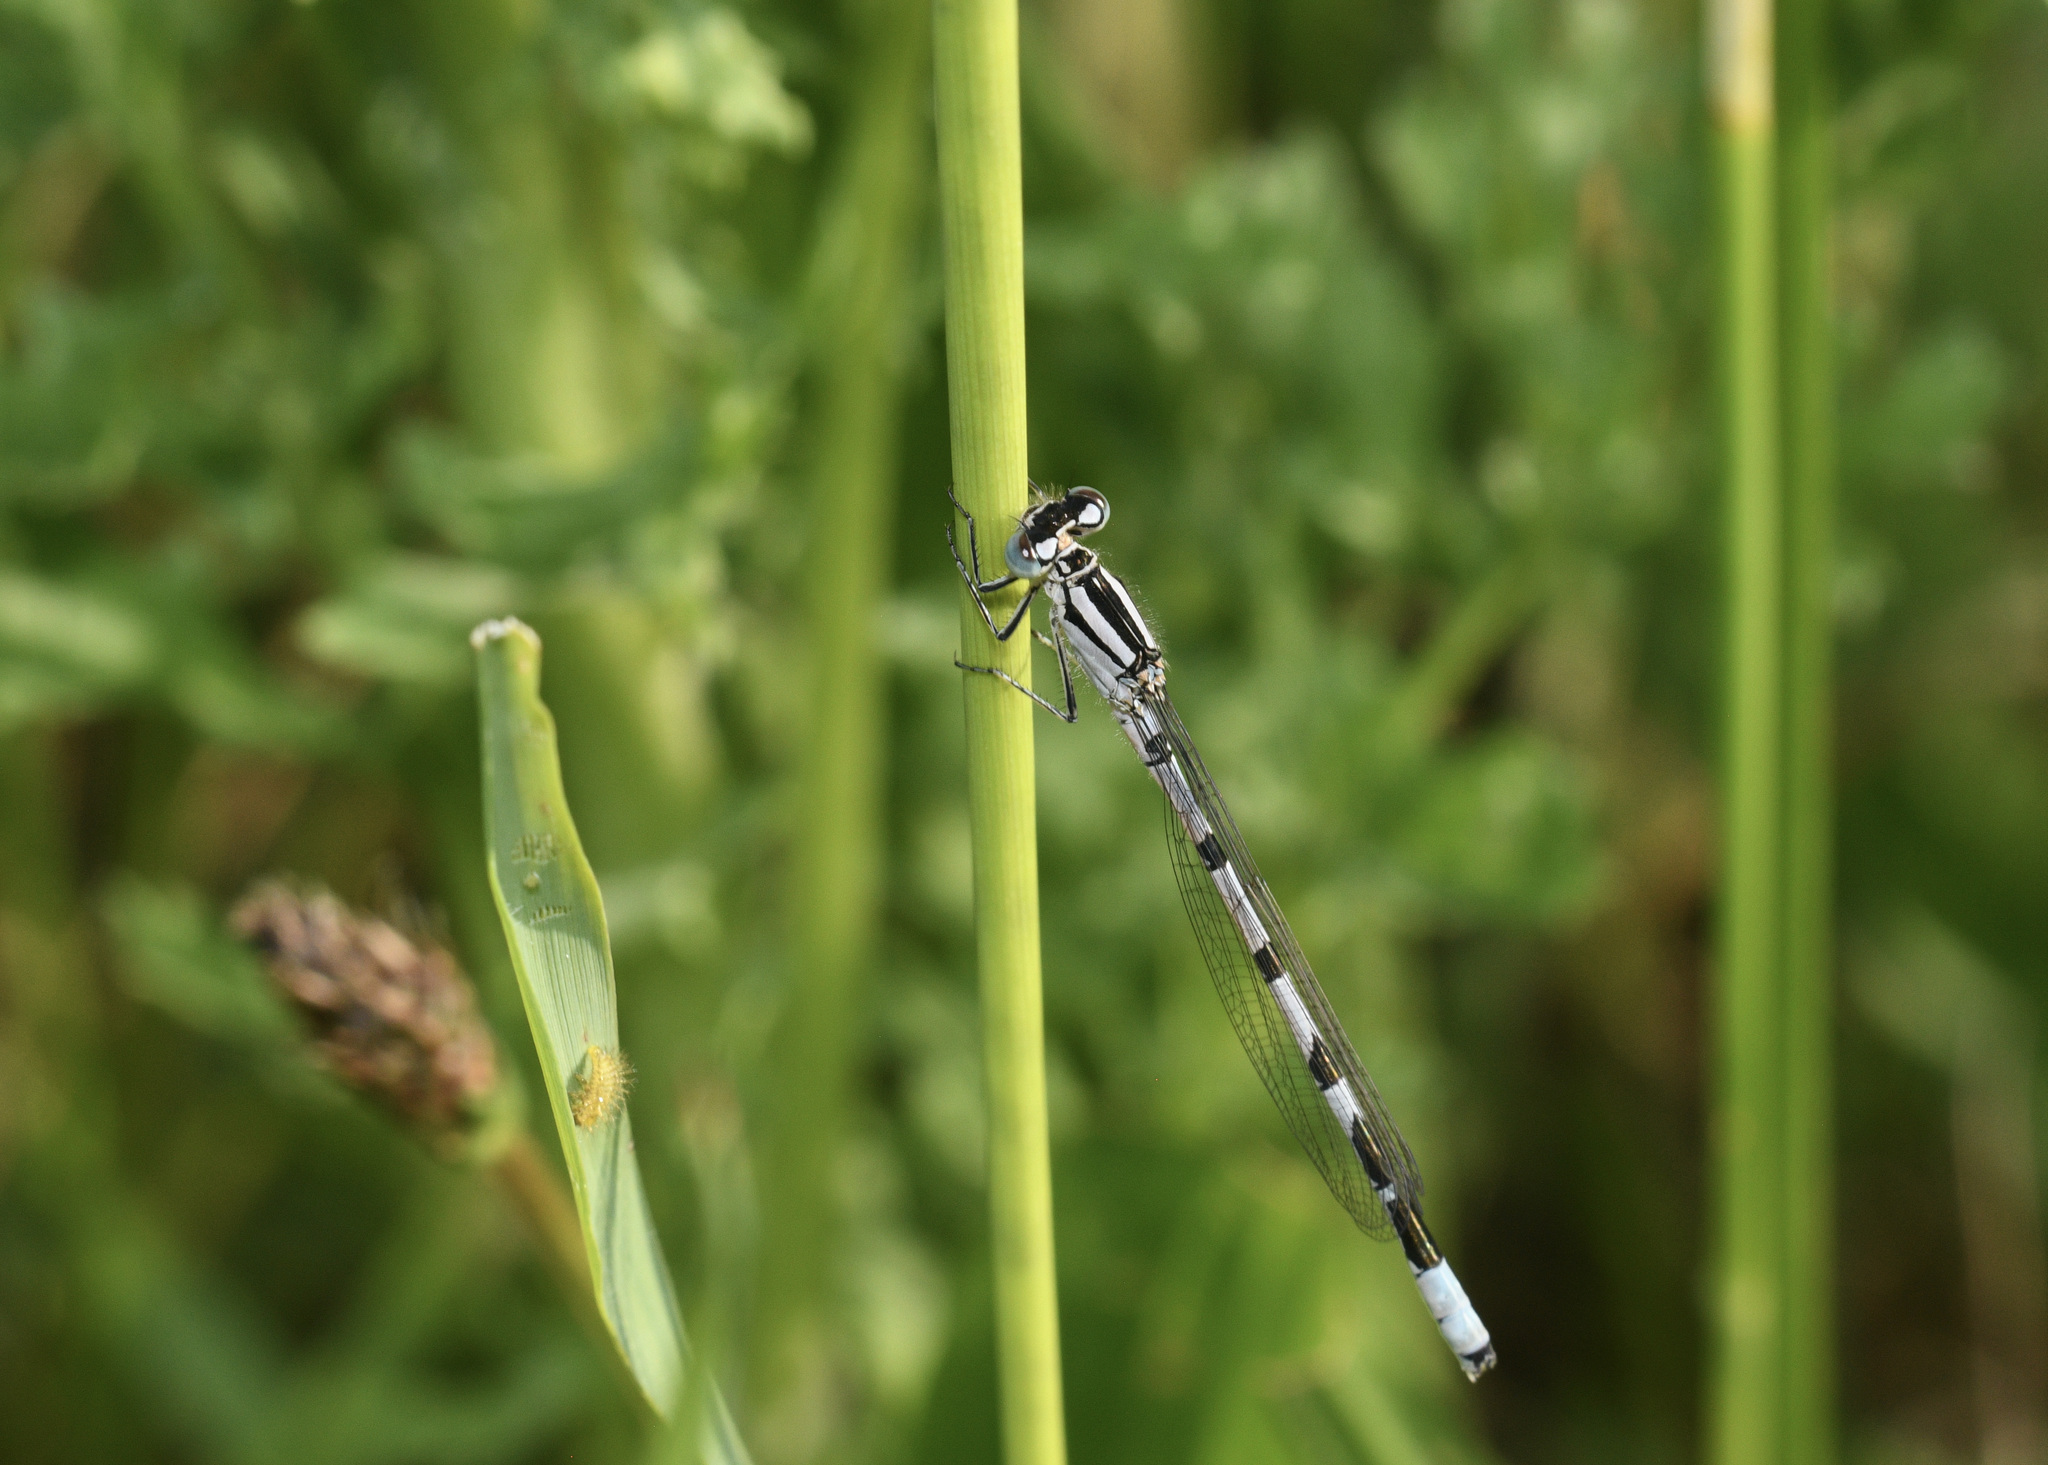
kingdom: Animalia
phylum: Arthropoda
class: Insecta
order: Odonata
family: Coenagrionidae
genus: Enallagma
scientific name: Enallagma cyathigerum
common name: Common blue damselfly
